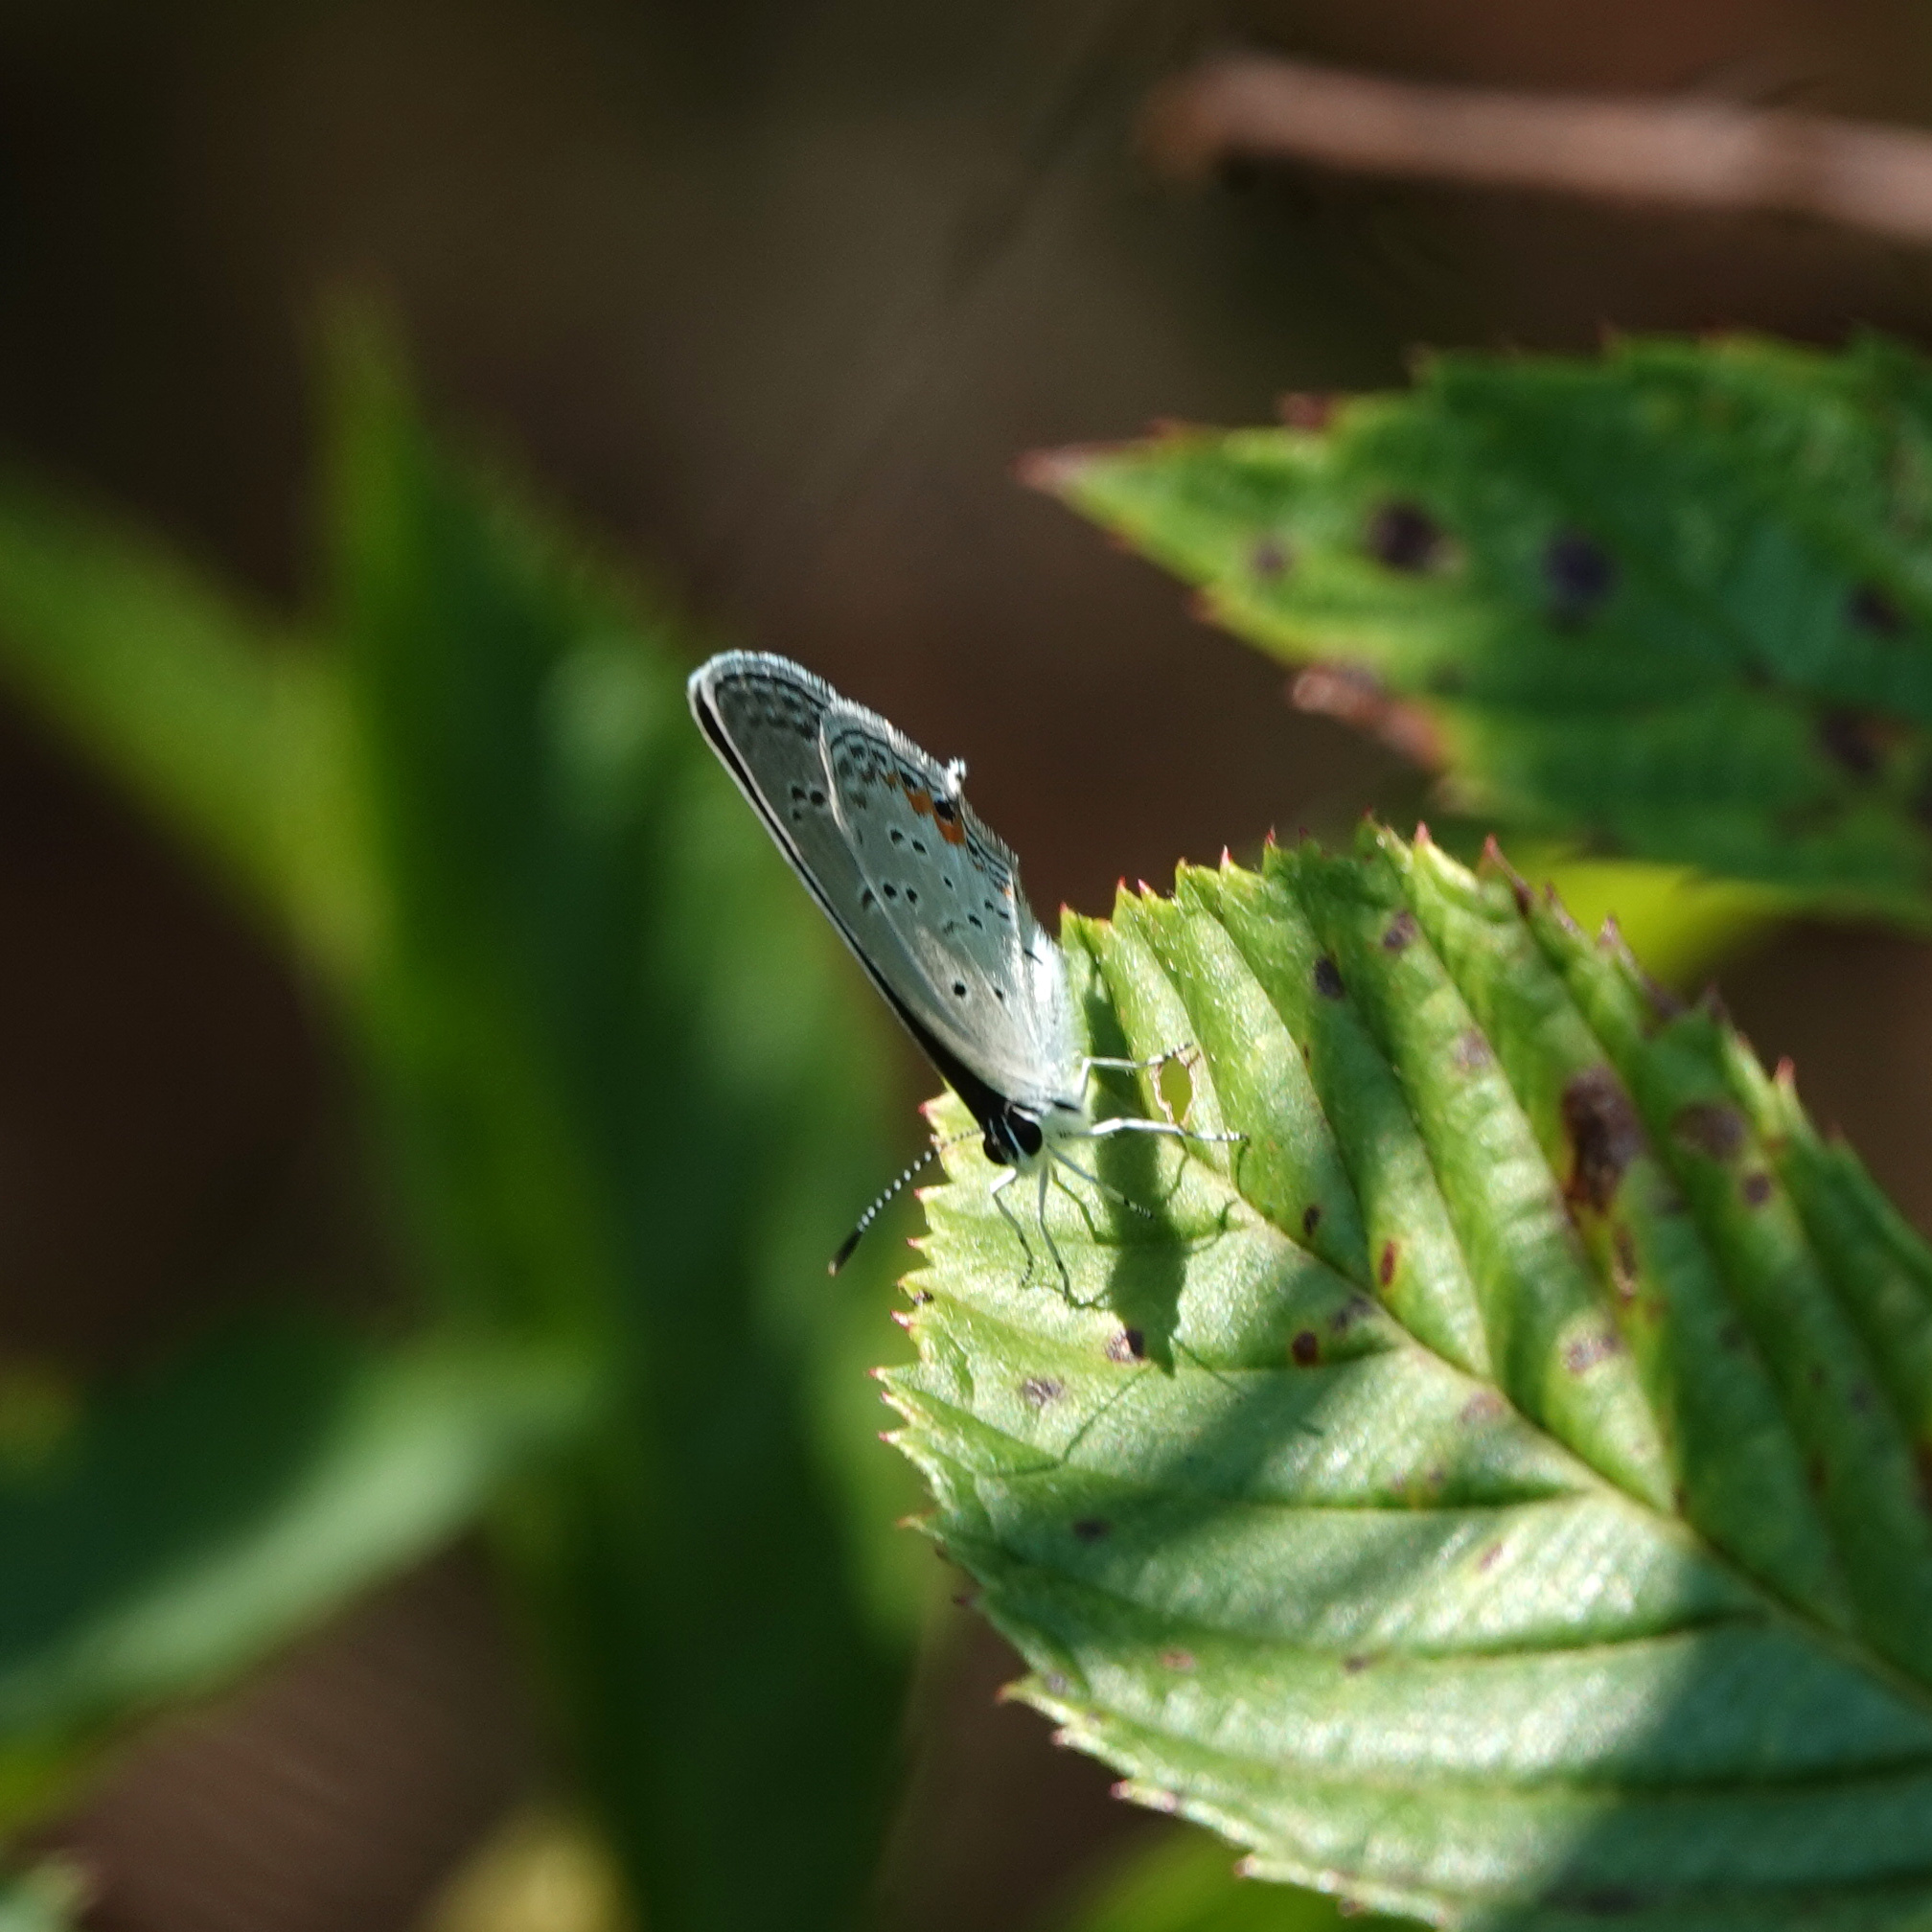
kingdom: Animalia
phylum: Arthropoda
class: Insecta
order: Lepidoptera
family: Lycaenidae
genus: Elkalyce
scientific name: Elkalyce comyntas
